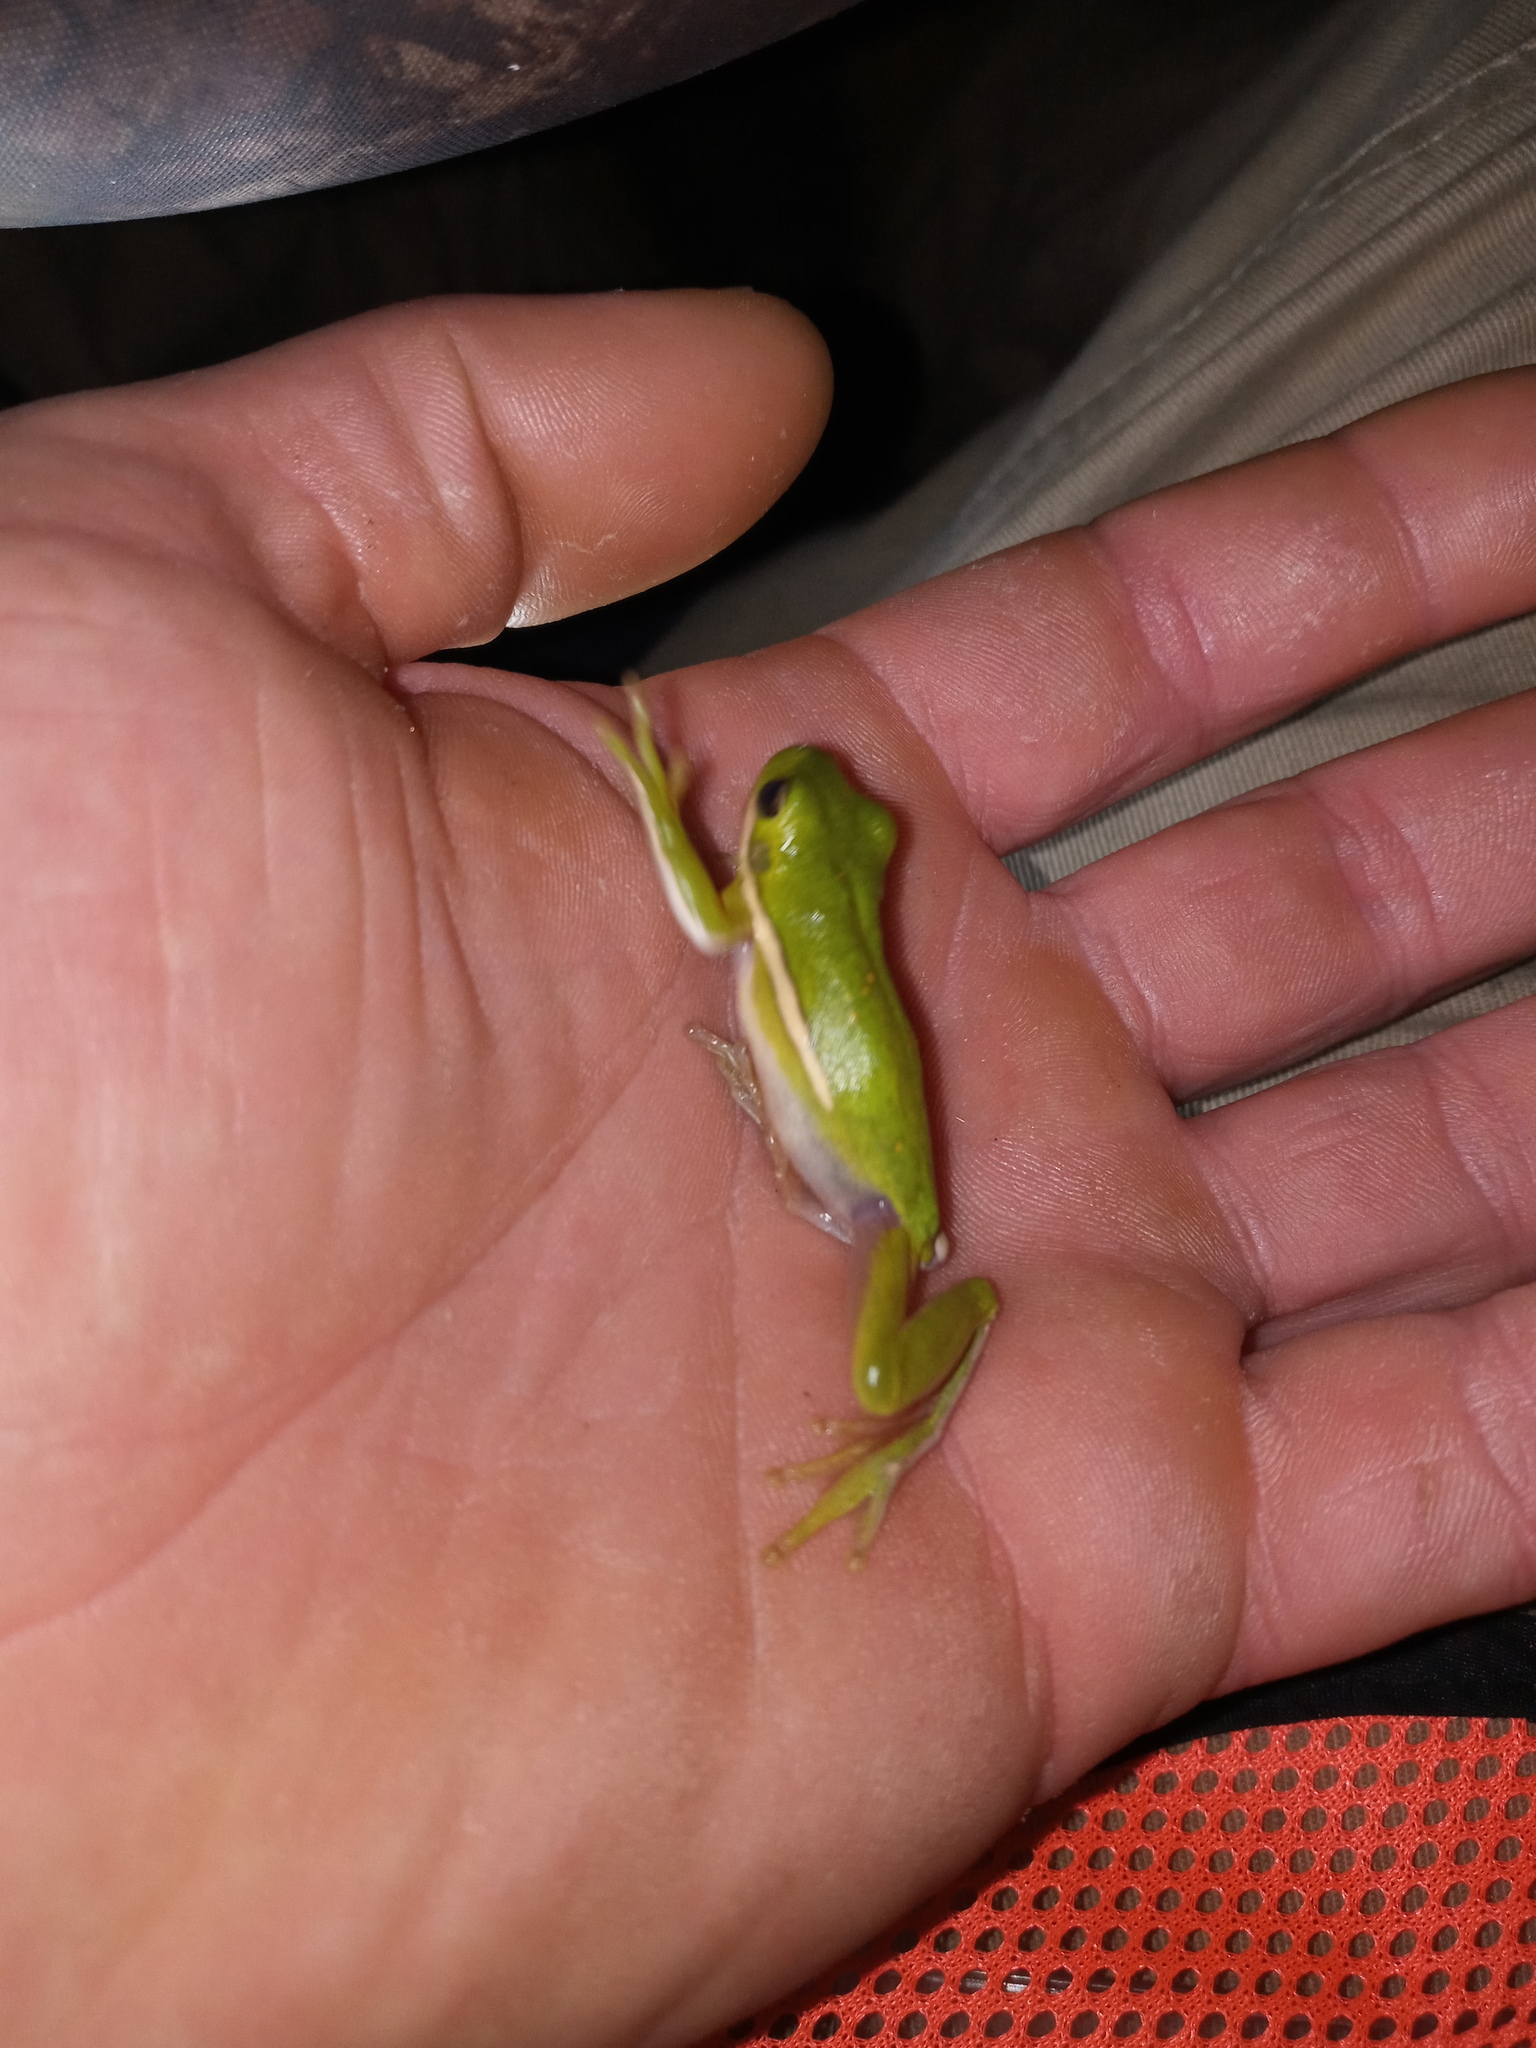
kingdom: Animalia
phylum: Chordata
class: Amphibia
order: Anura
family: Hylidae
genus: Dryophytes
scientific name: Dryophytes cinereus
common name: Green treefrog
